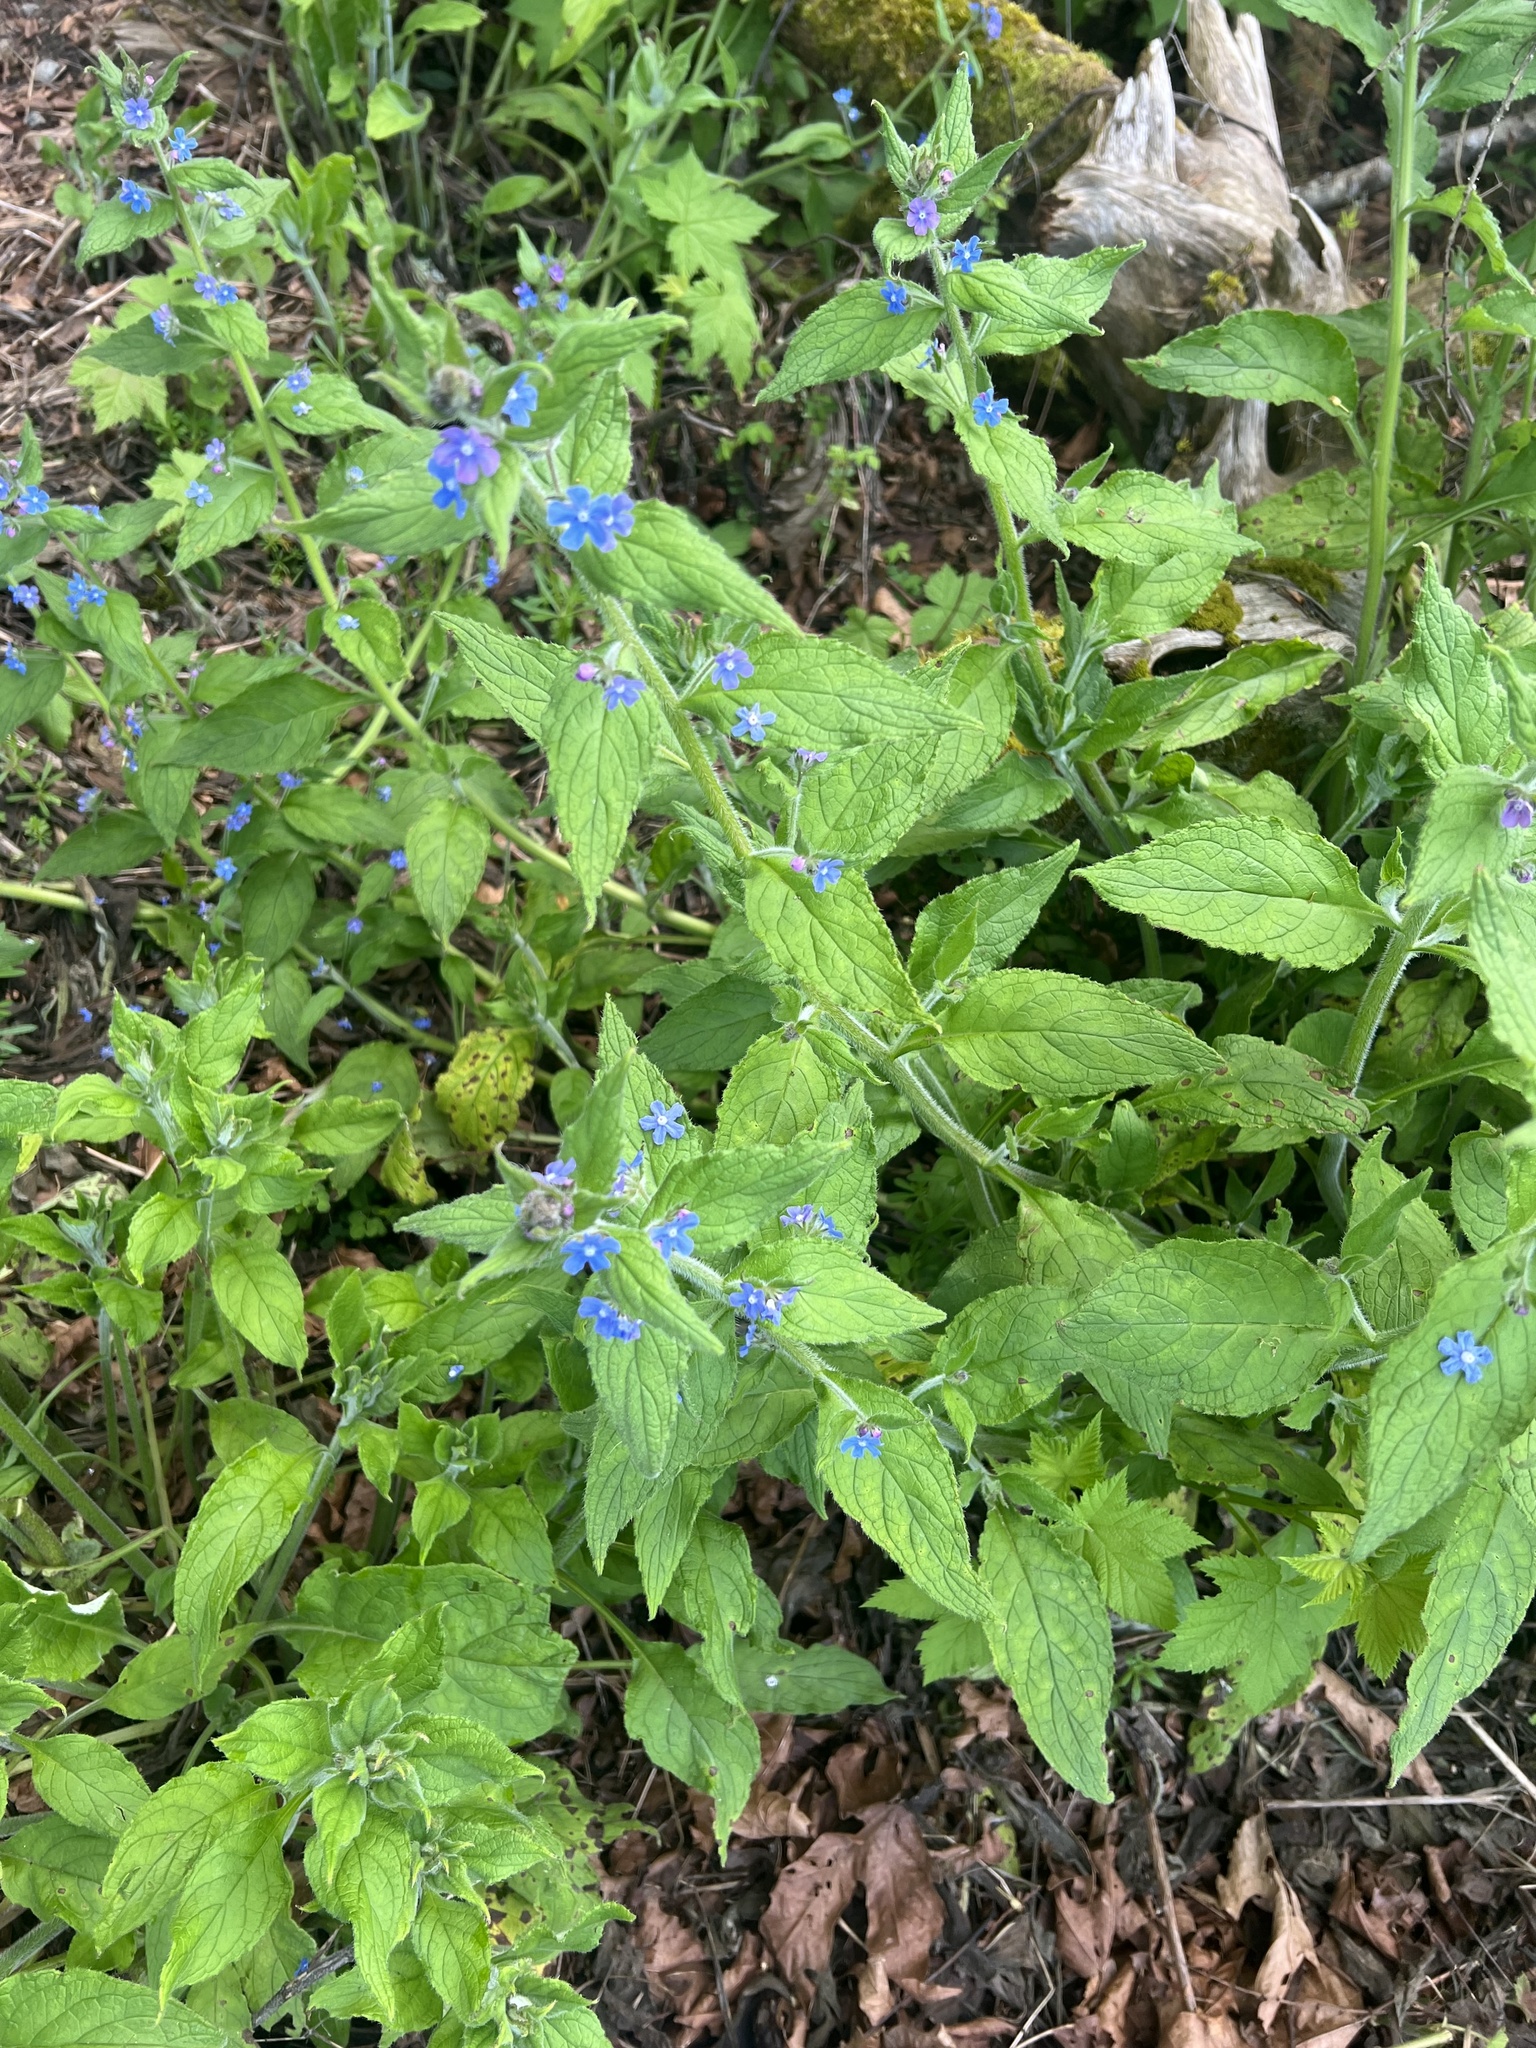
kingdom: Plantae
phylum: Tracheophyta
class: Magnoliopsida
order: Boraginales
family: Boraginaceae
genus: Pentaglottis
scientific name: Pentaglottis sempervirens
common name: Green alkanet
